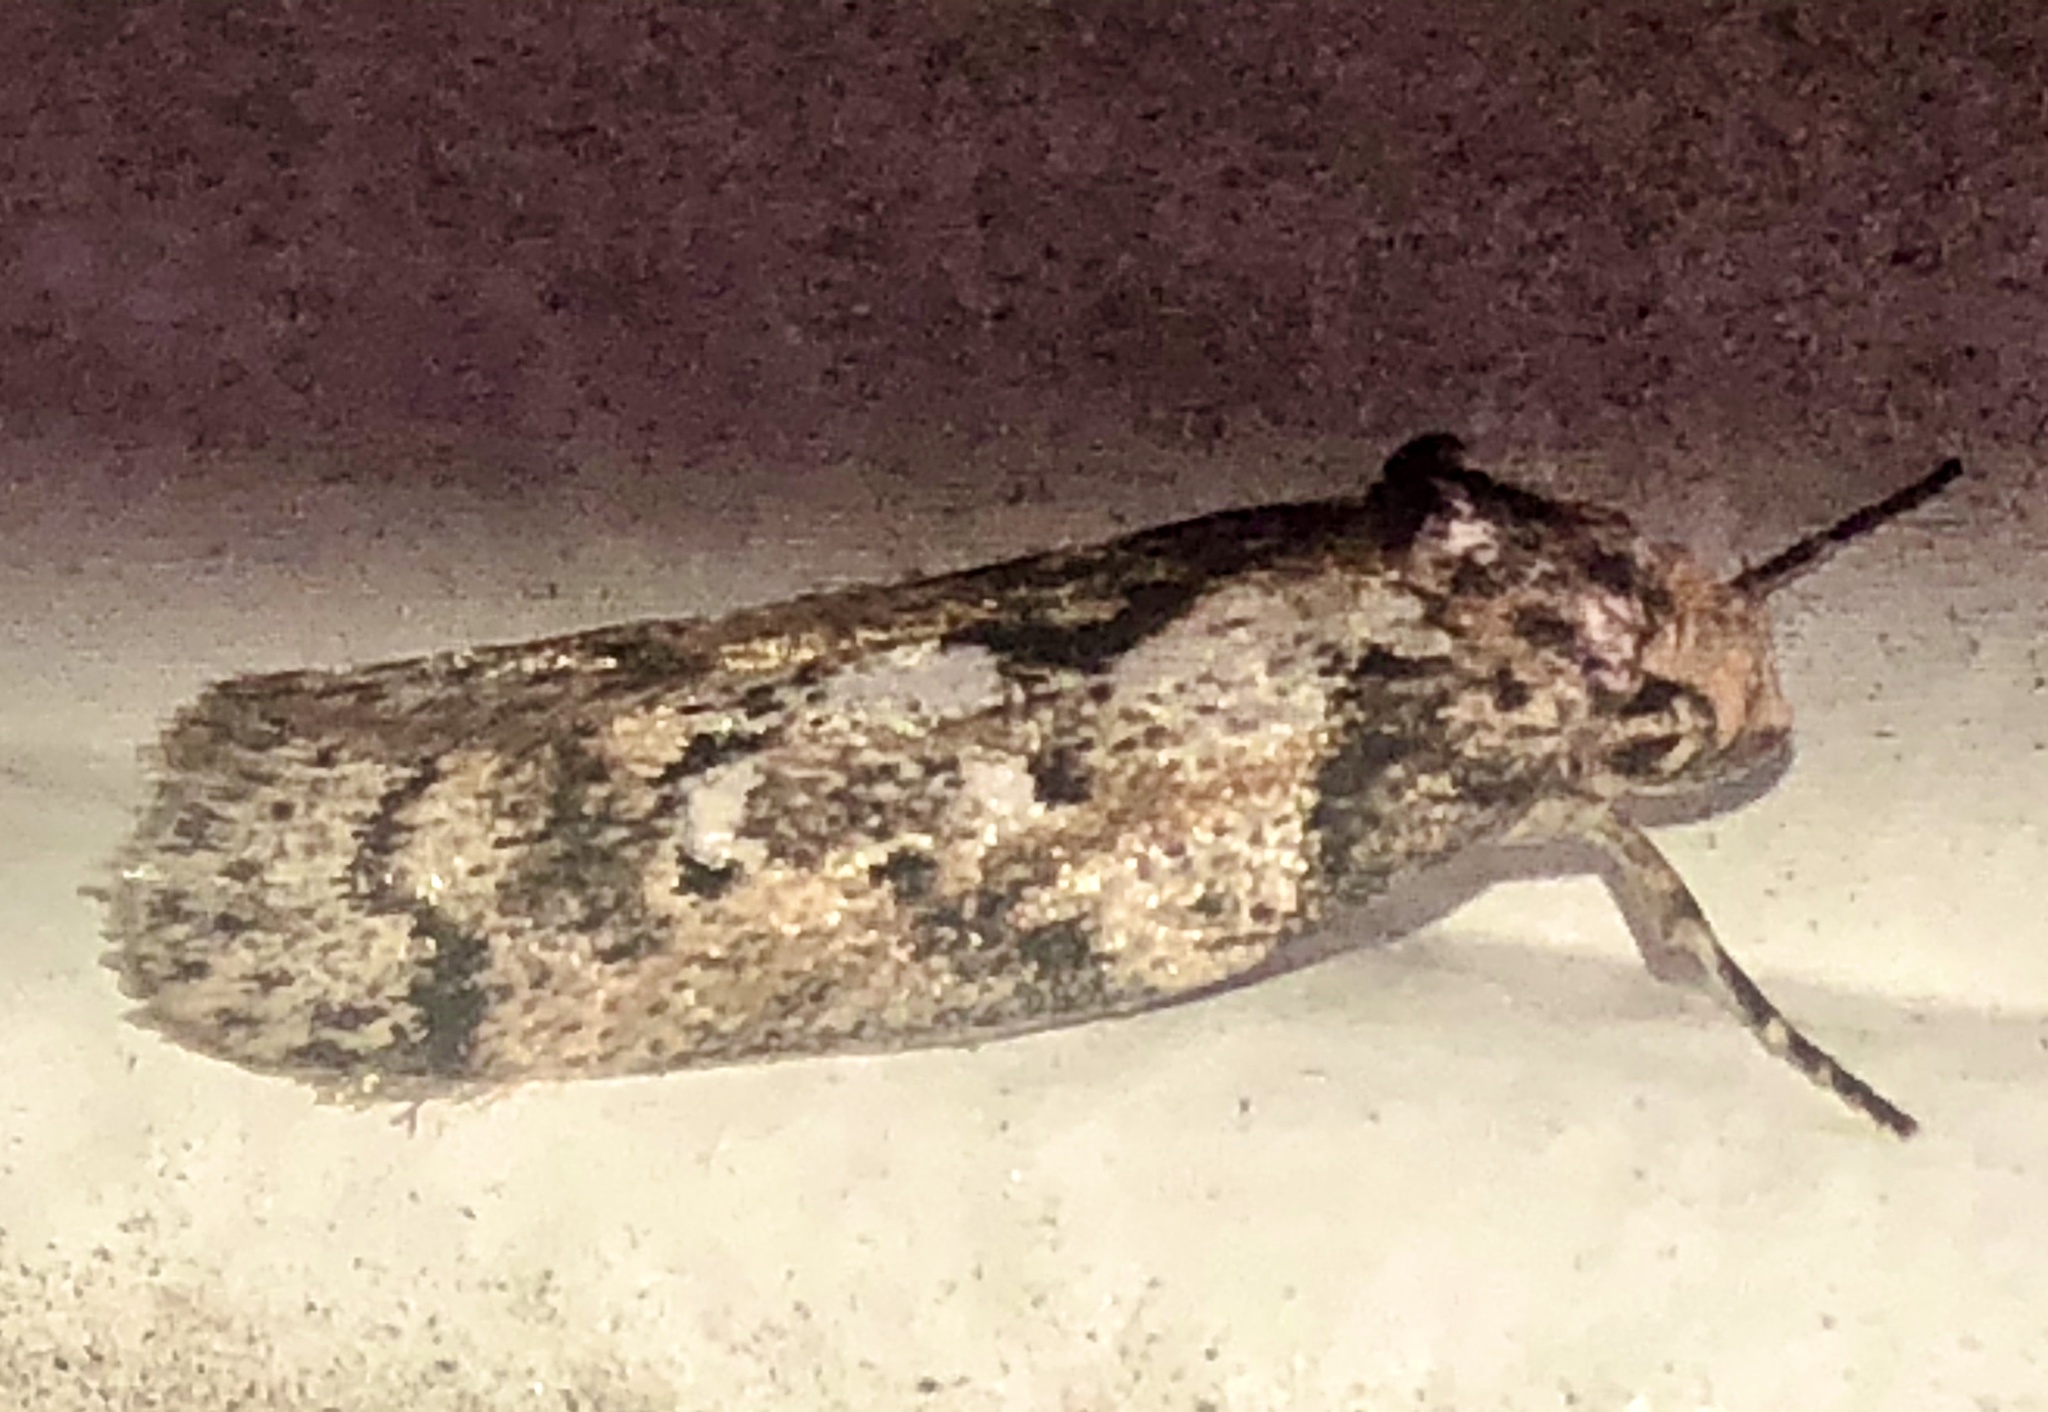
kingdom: Animalia
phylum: Arthropoda
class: Insecta
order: Lepidoptera
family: Oecophoridae
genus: Philobota
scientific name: Philobota baryptera
